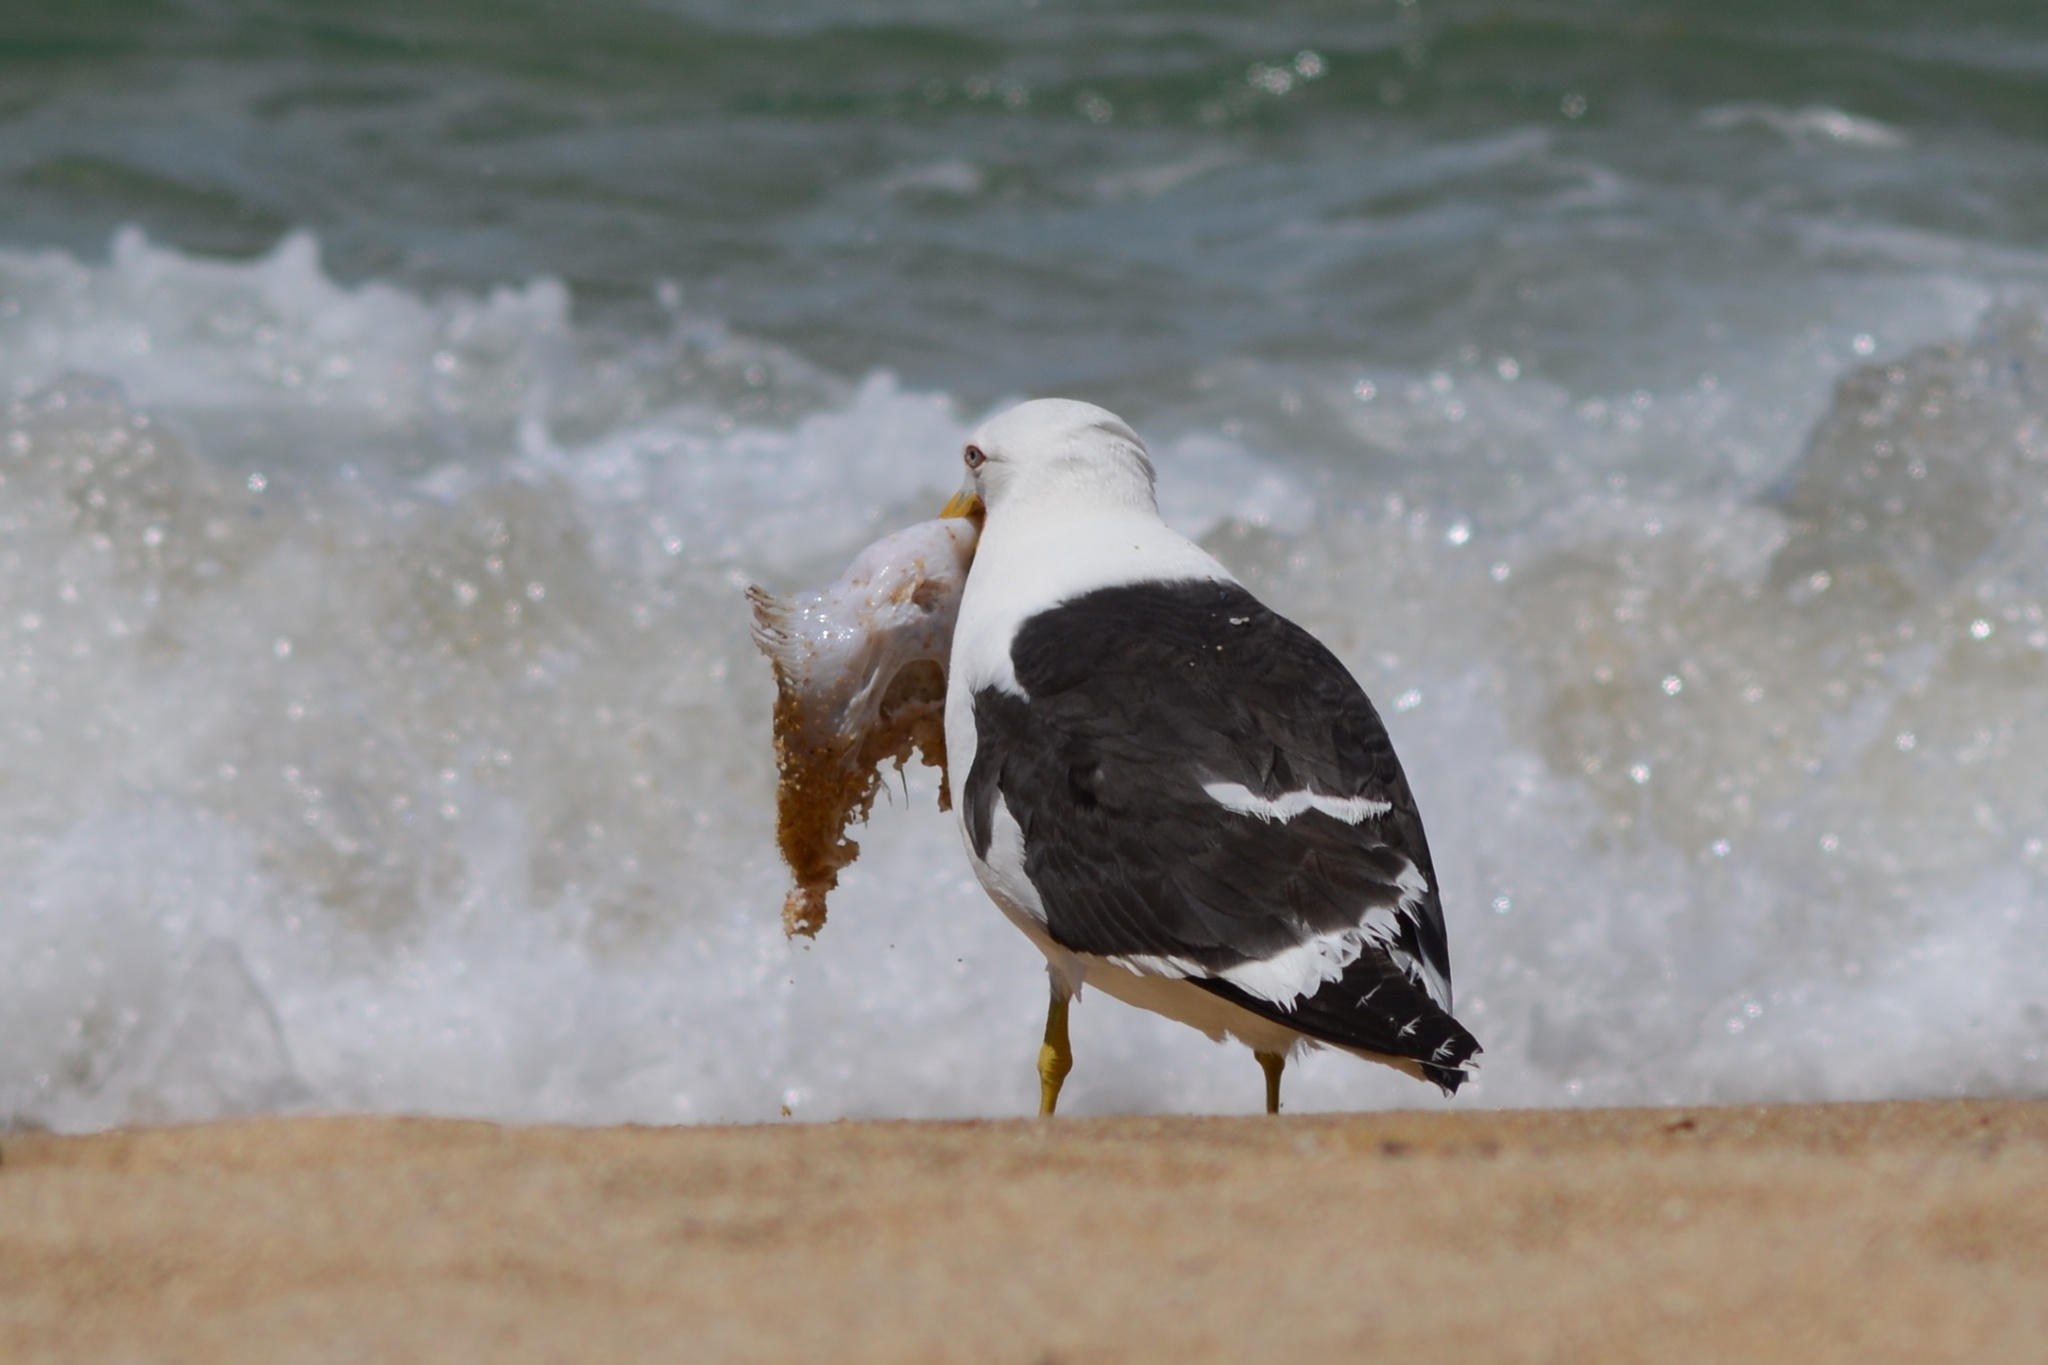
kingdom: Animalia
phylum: Chordata
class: Aves
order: Charadriiformes
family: Laridae
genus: Larus
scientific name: Larus dominicanus
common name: Kelp gull
